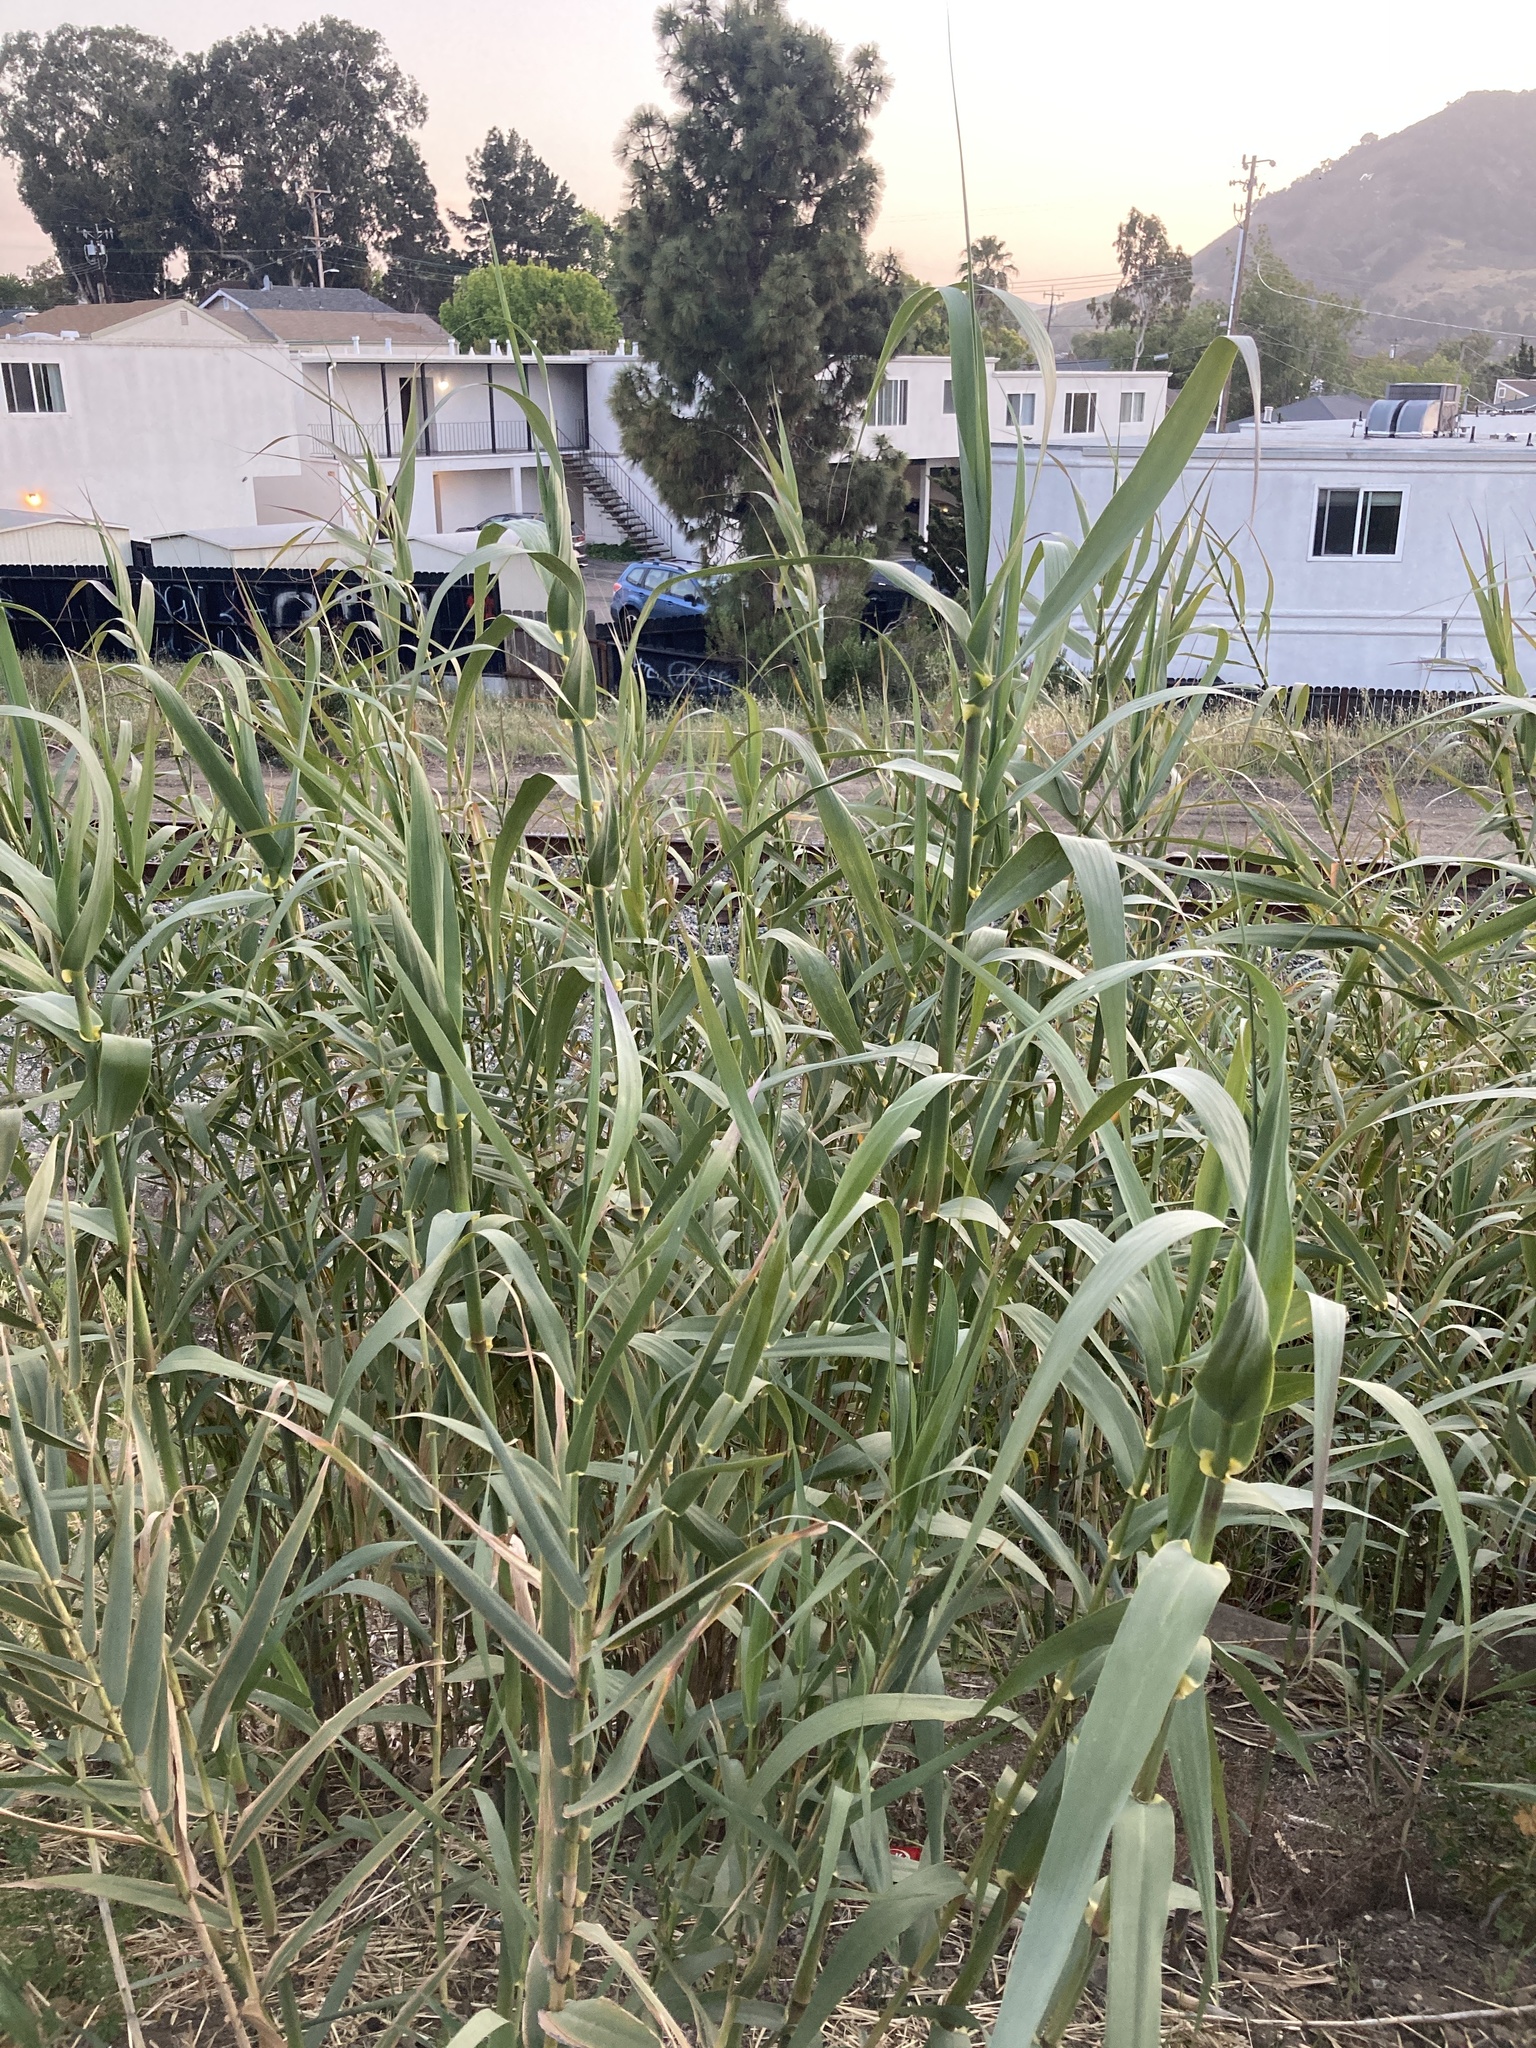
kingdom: Plantae
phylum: Tracheophyta
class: Liliopsida
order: Poales
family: Poaceae
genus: Arundo
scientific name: Arundo donax
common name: Giant reed
